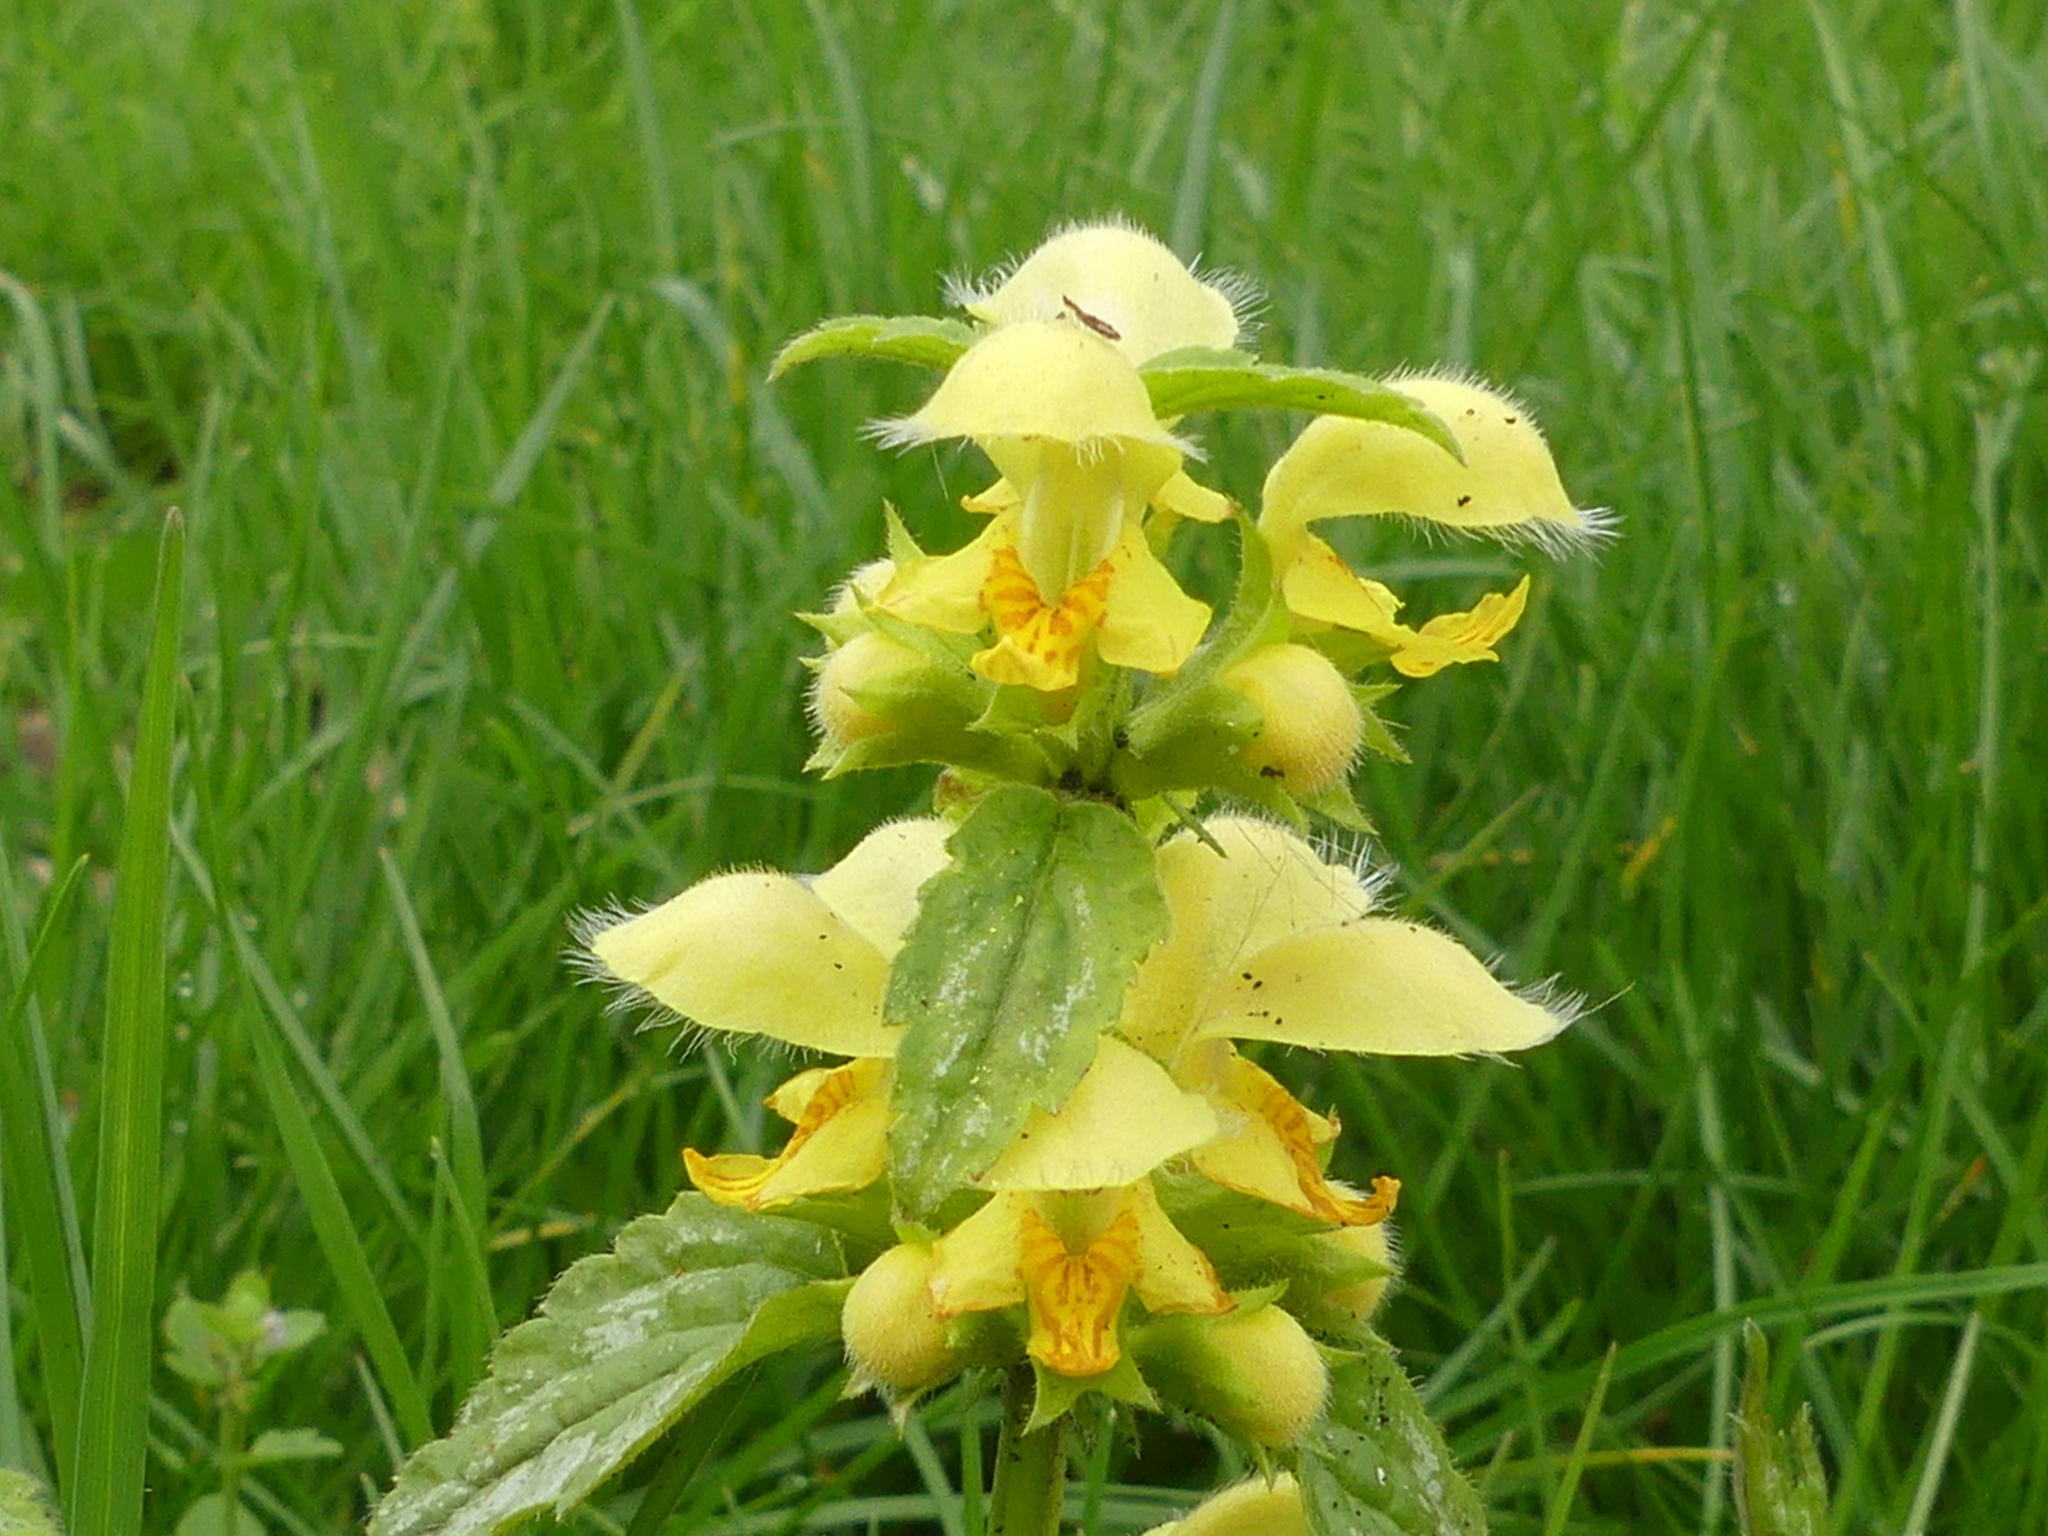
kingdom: Plantae
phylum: Tracheophyta
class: Magnoliopsida
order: Lamiales
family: Lamiaceae
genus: Lamium
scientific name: Lamium galeobdolon
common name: Yellow archangel
